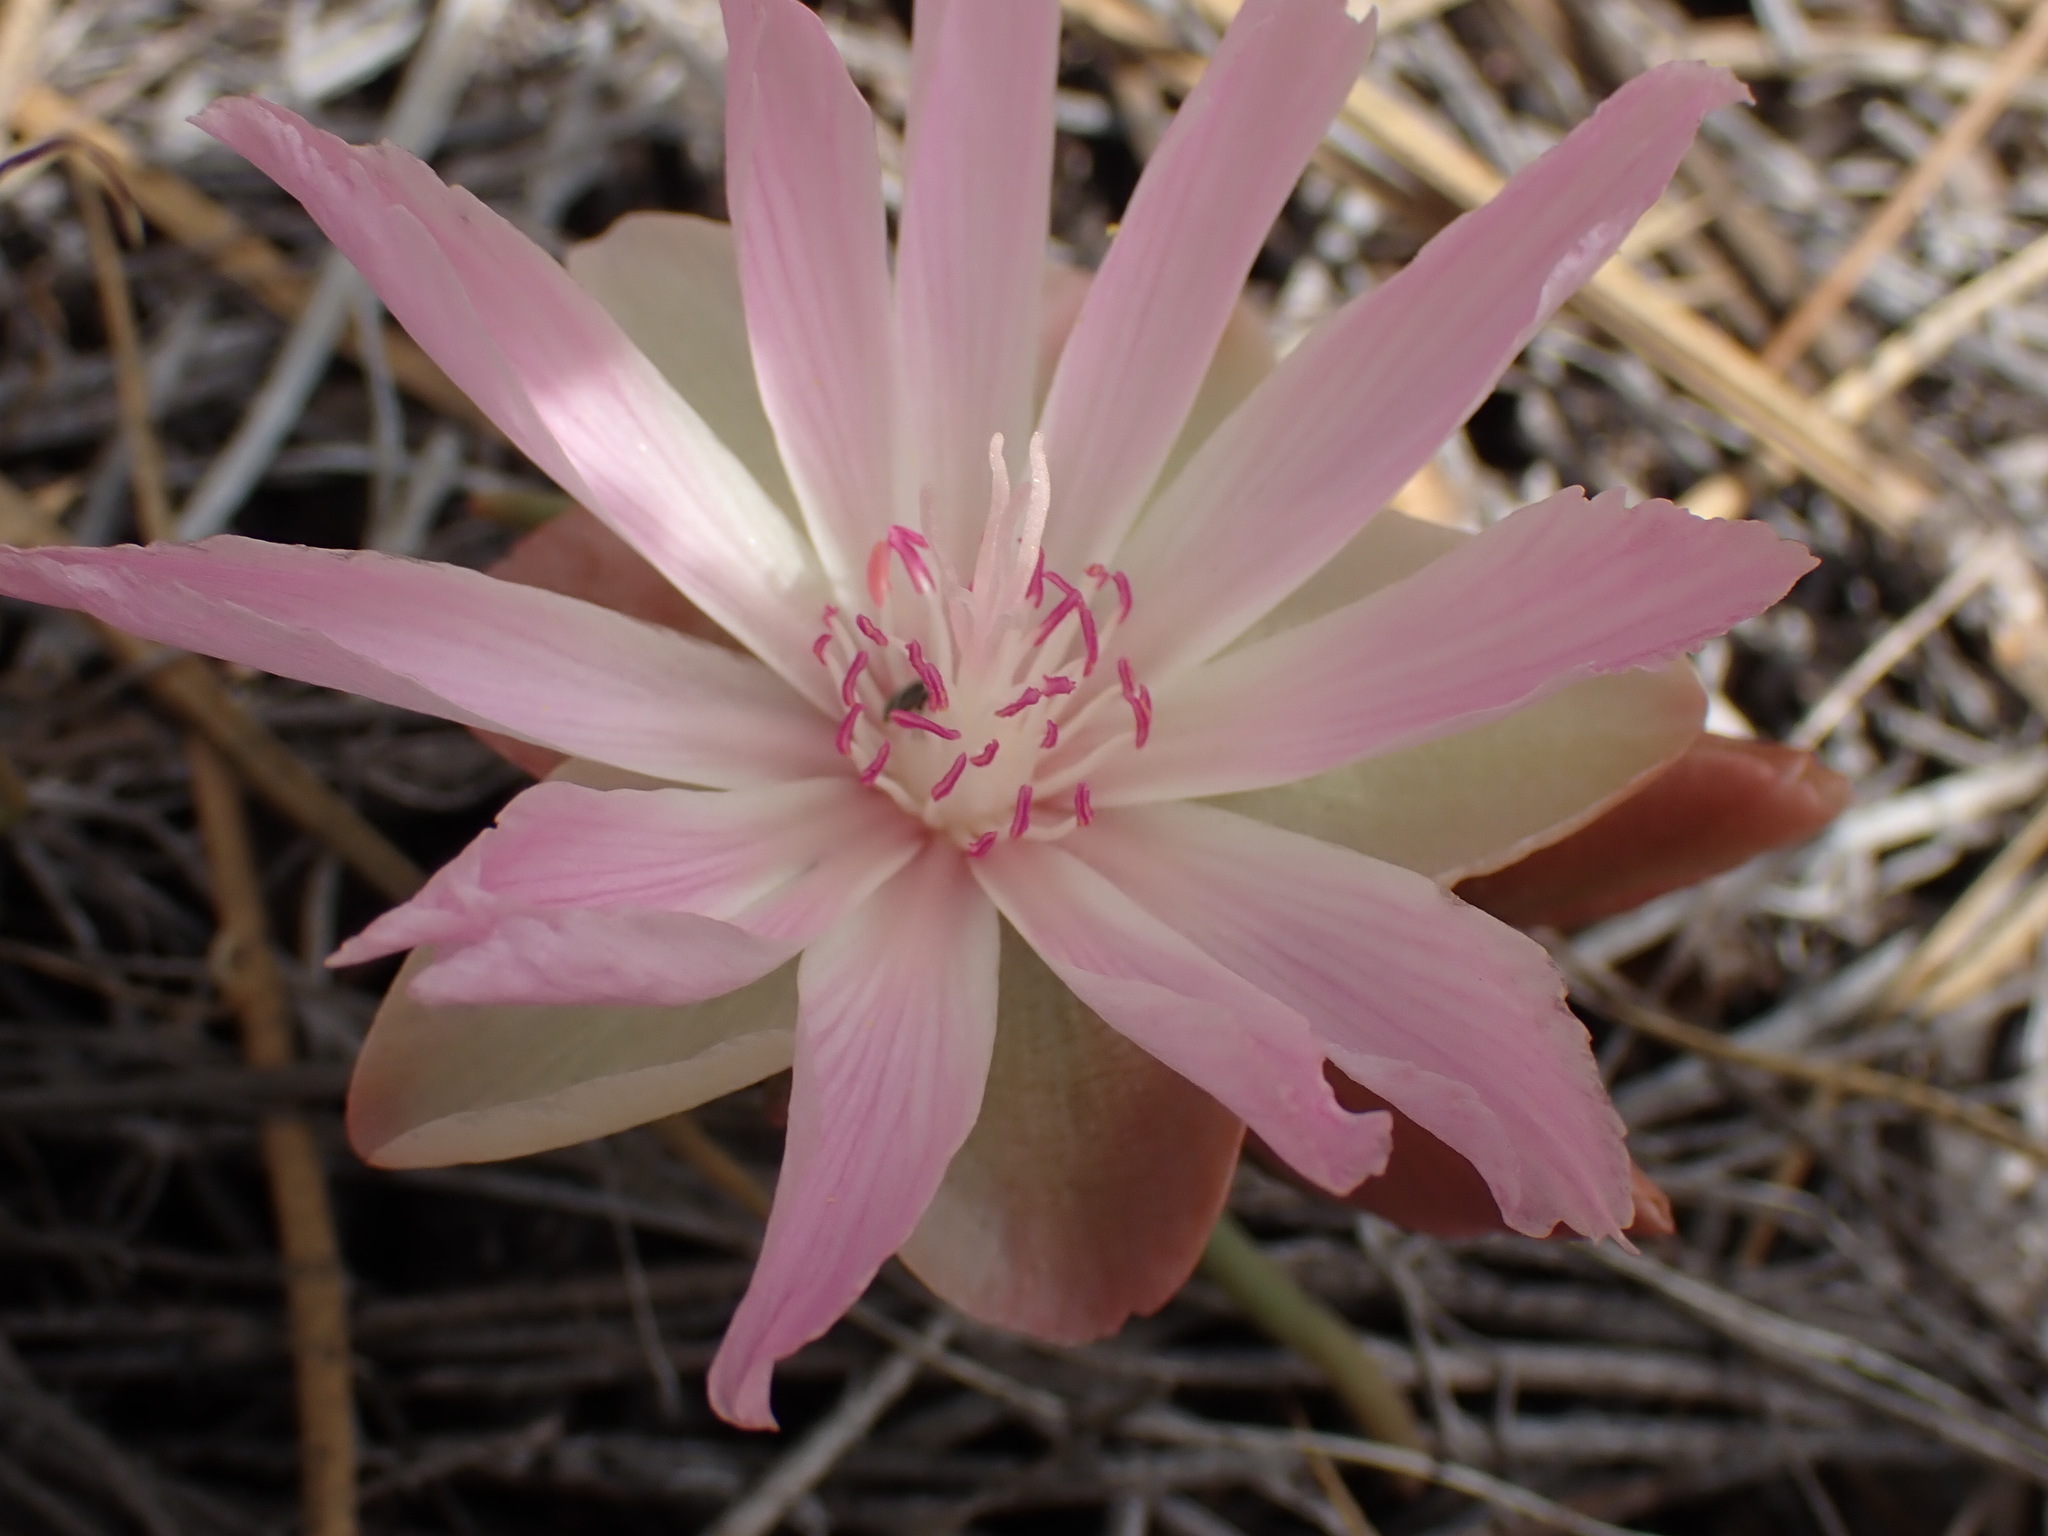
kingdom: Plantae
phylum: Tracheophyta
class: Magnoliopsida
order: Caryophyllales
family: Montiaceae
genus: Lewisia
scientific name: Lewisia rediviva
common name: Bitter-root
